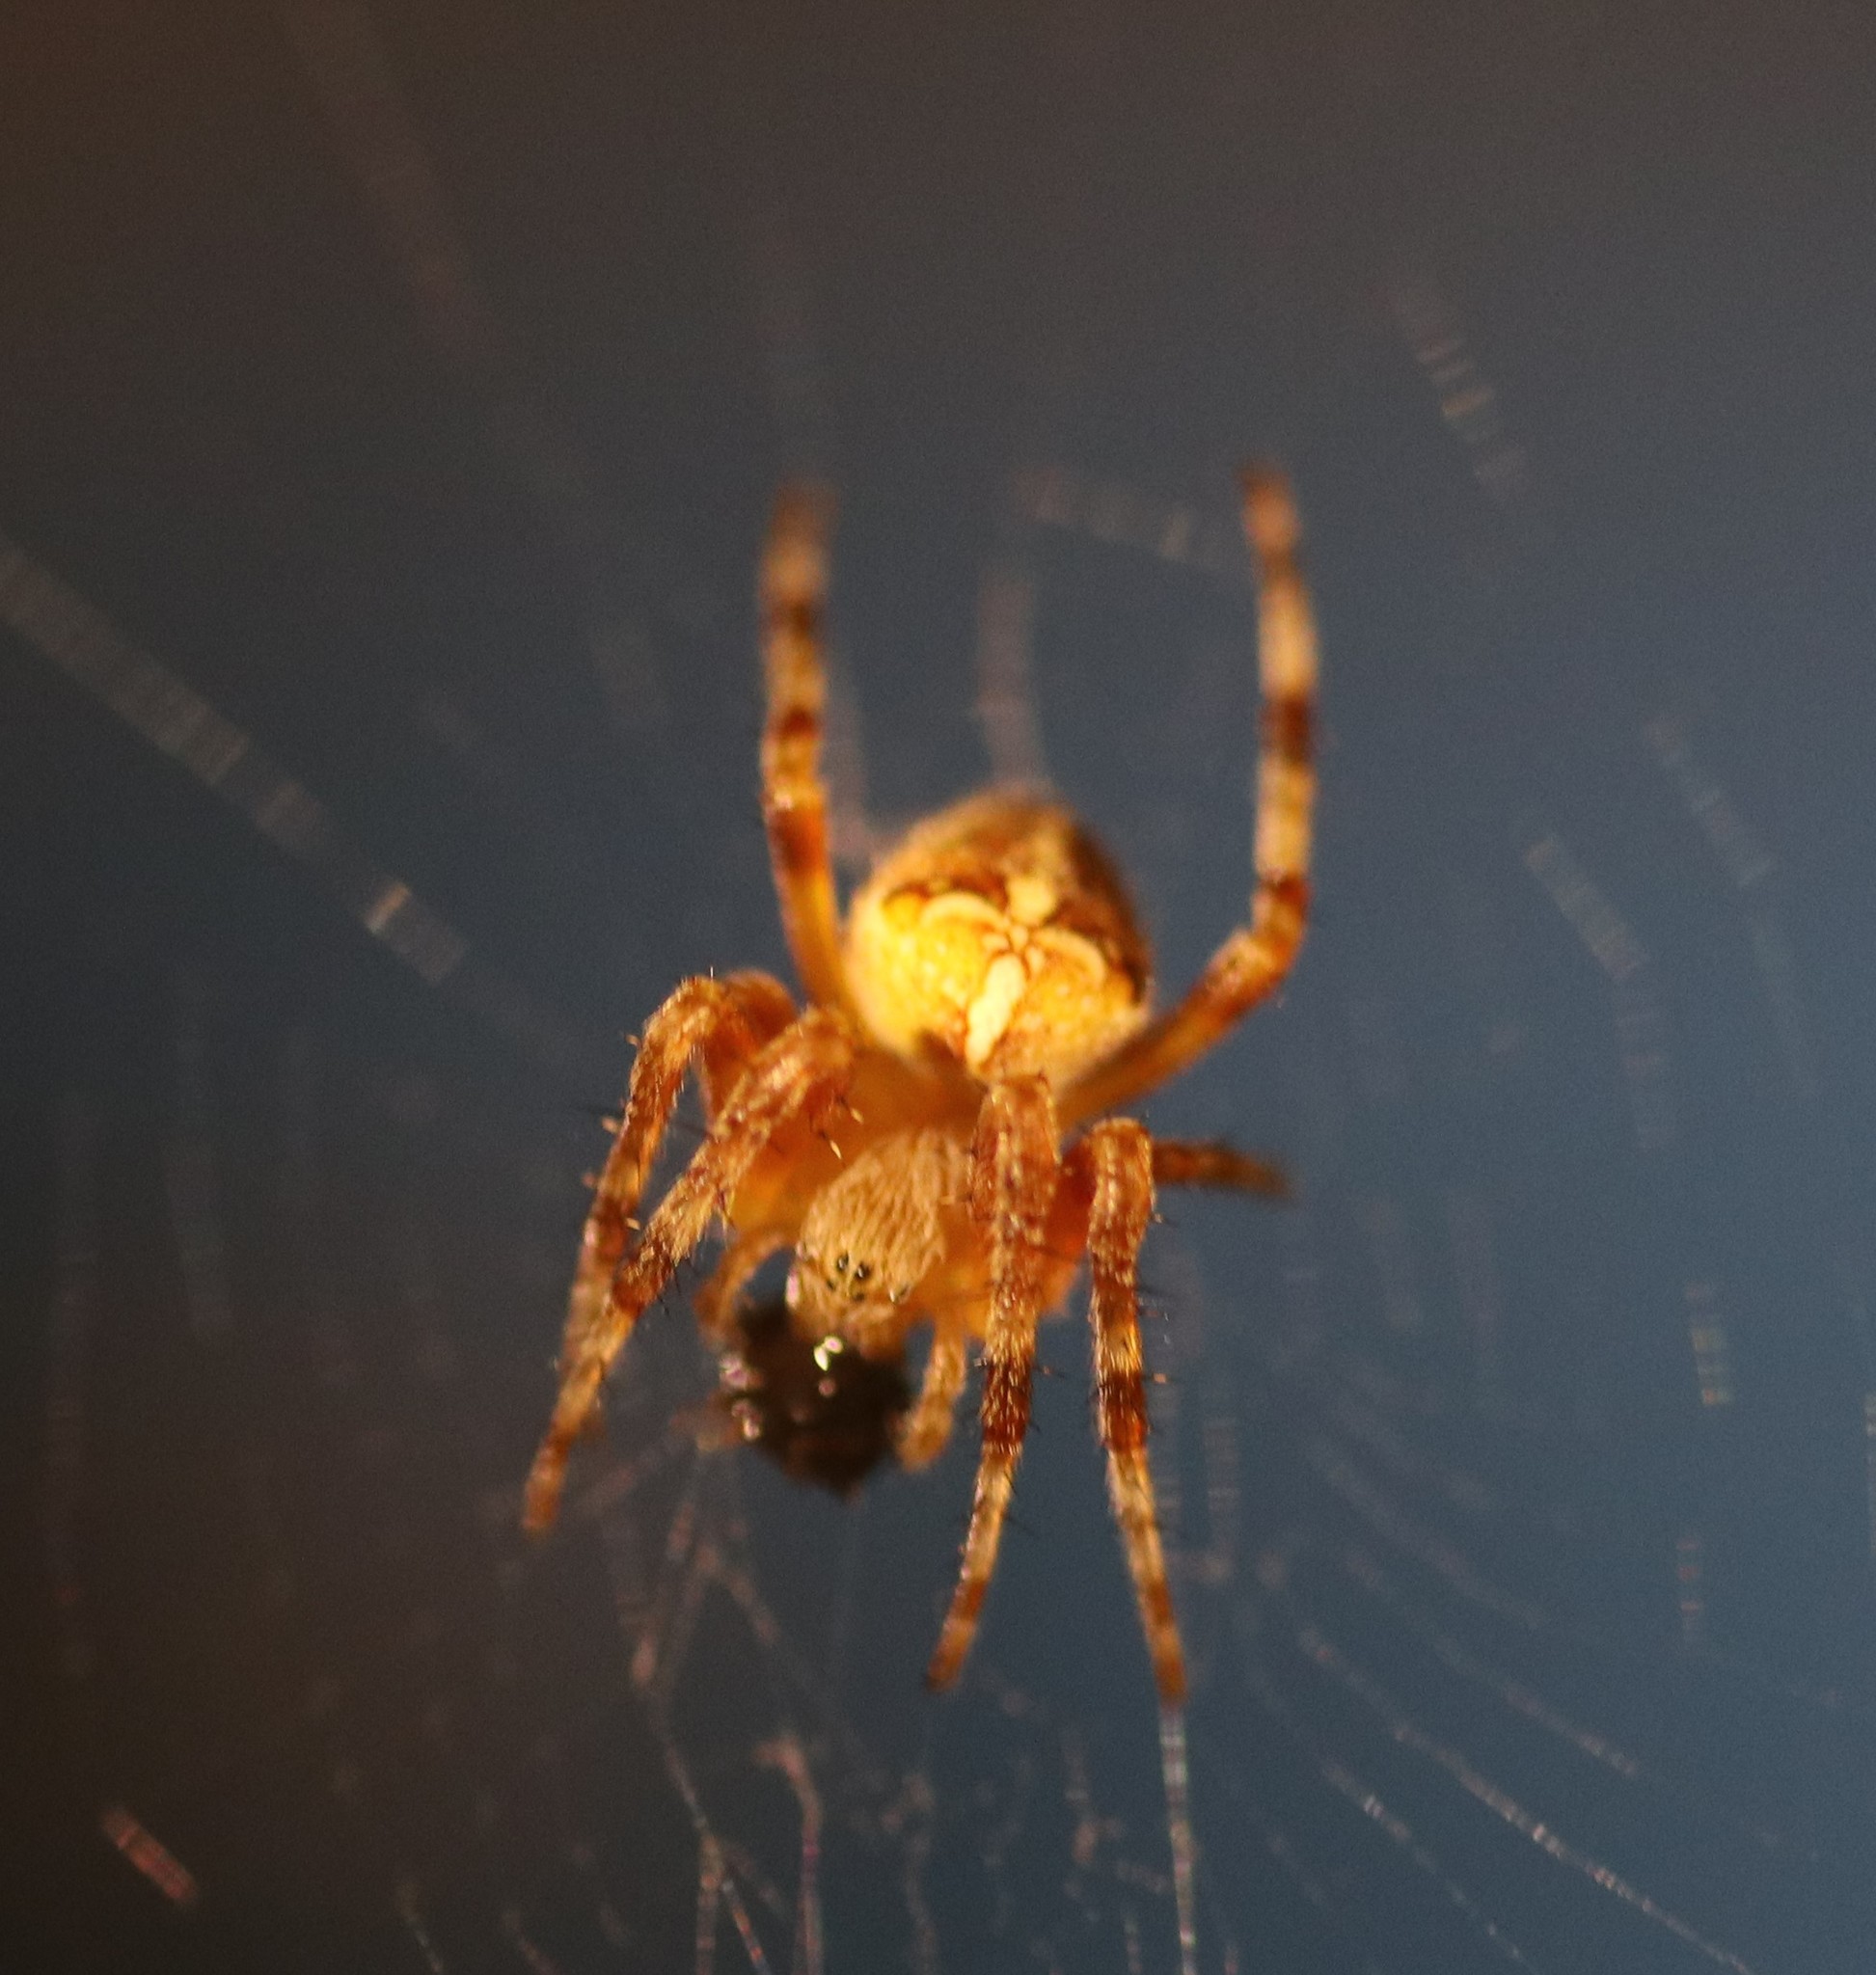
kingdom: Animalia
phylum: Arthropoda
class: Arachnida
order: Araneae
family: Araneidae
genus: Araneus
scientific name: Araneus diadematus
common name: Cross orbweaver
